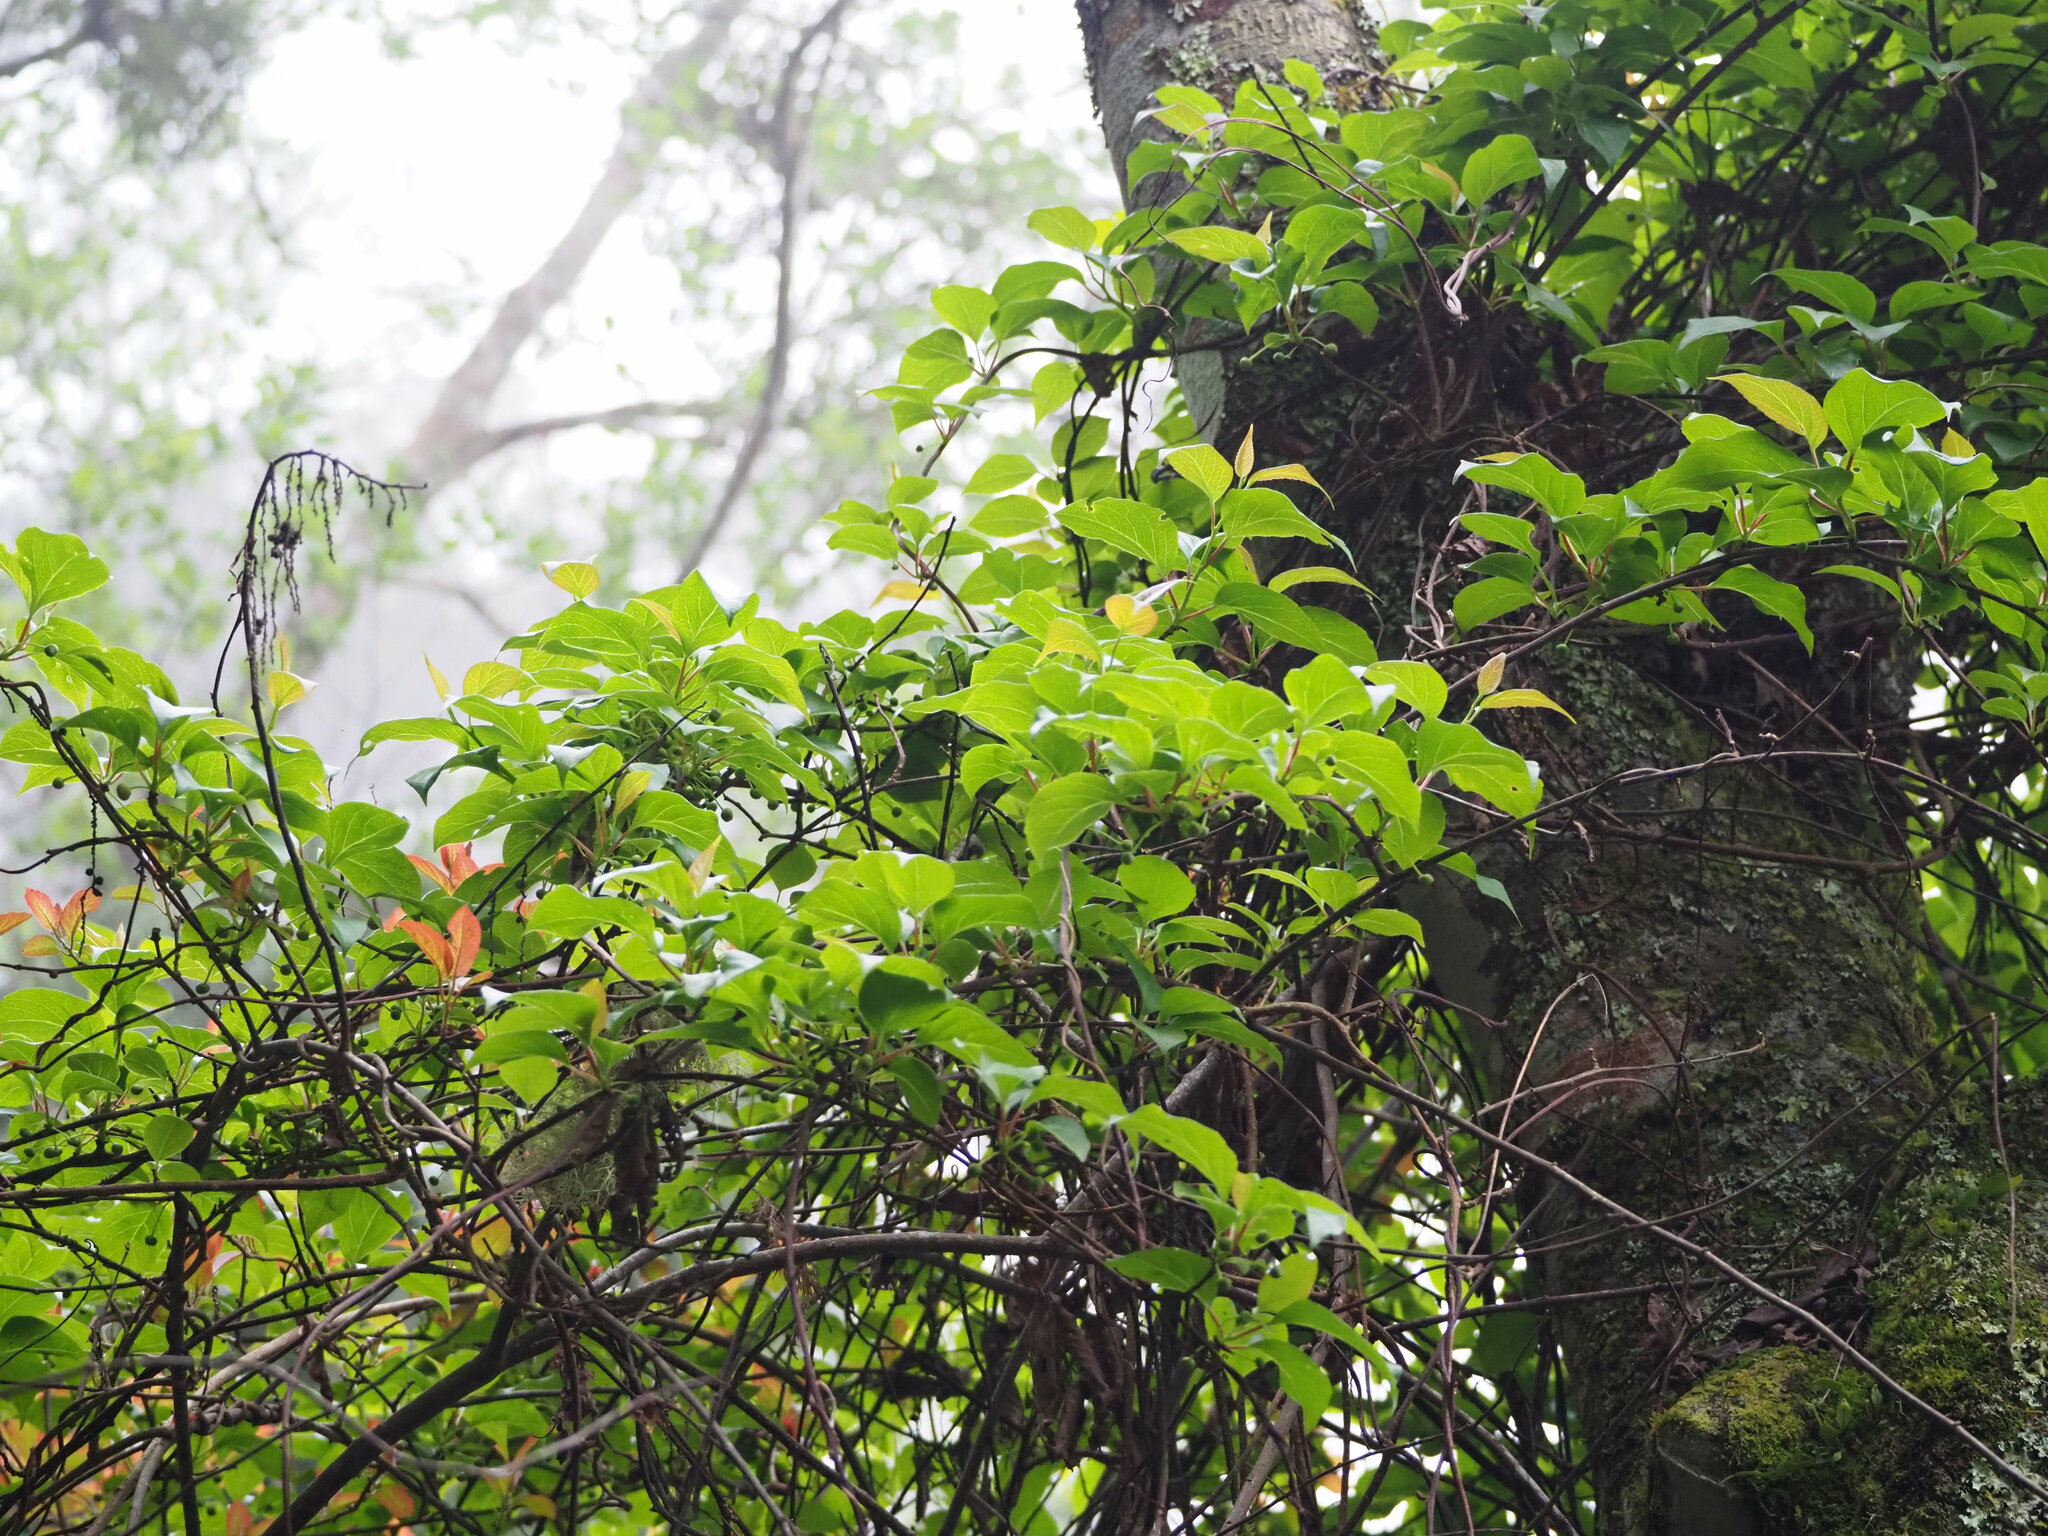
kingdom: Plantae
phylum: Tracheophyta
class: Magnoliopsida
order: Austrobaileyales
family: Schisandraceae
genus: Schisandra
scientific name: Schisandra arisanensis
